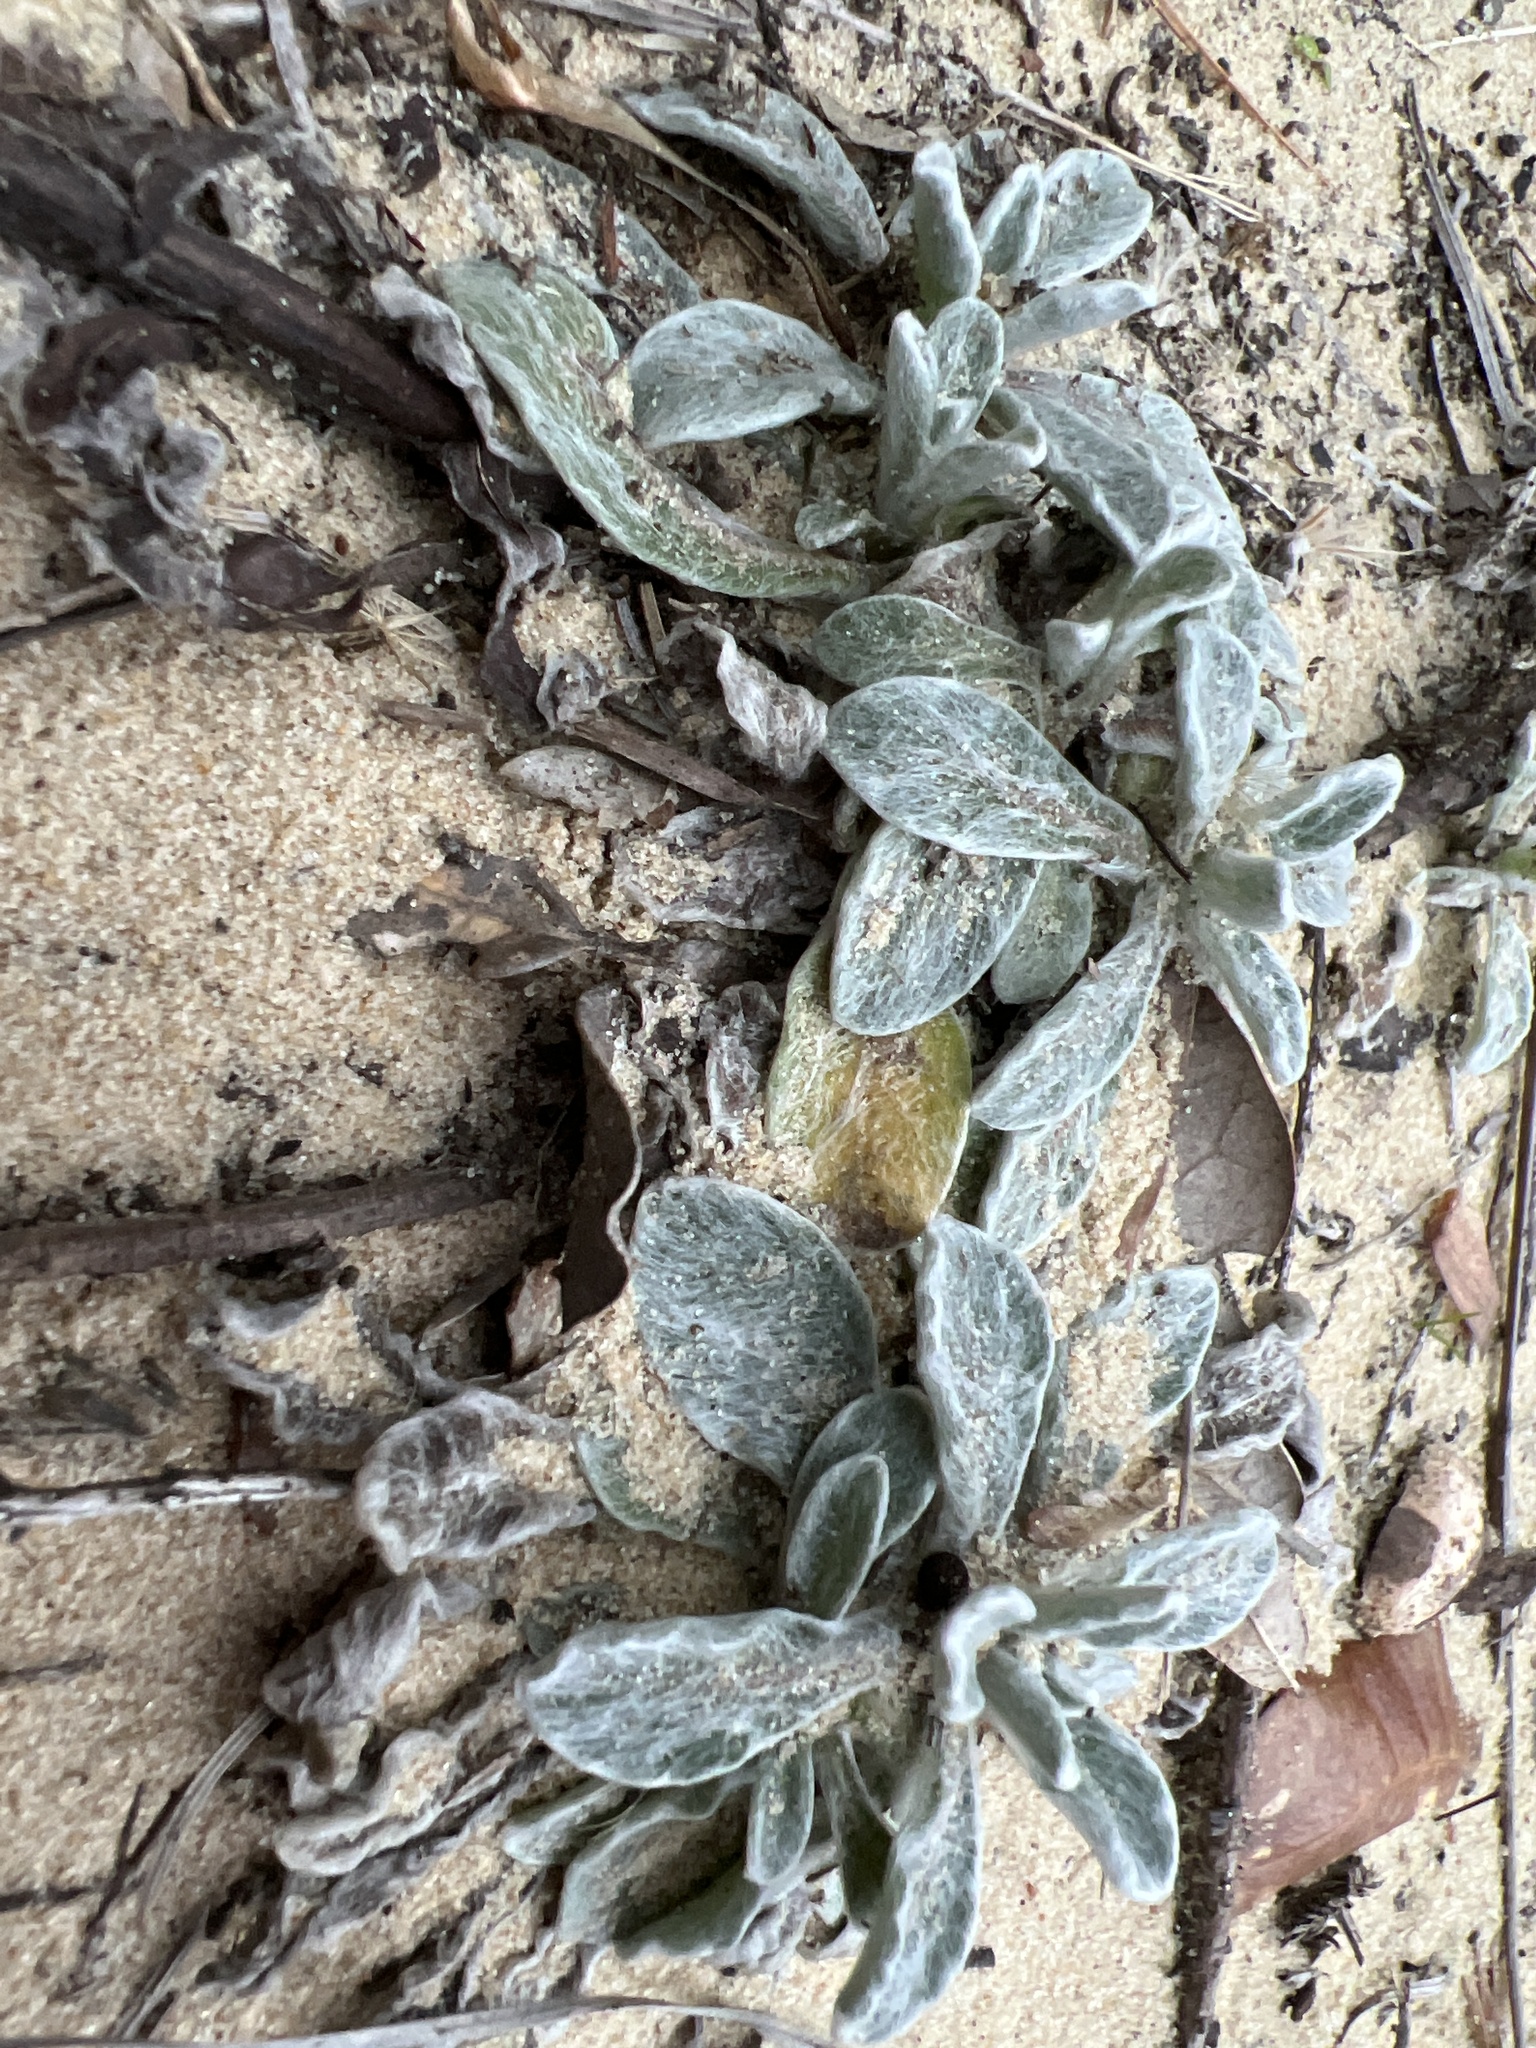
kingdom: Plantae
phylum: Tracheophyta
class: Magnoliopsida
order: Asterales
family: Asteraceae
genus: Chrysopsis
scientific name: Chrysopsis gossypina
